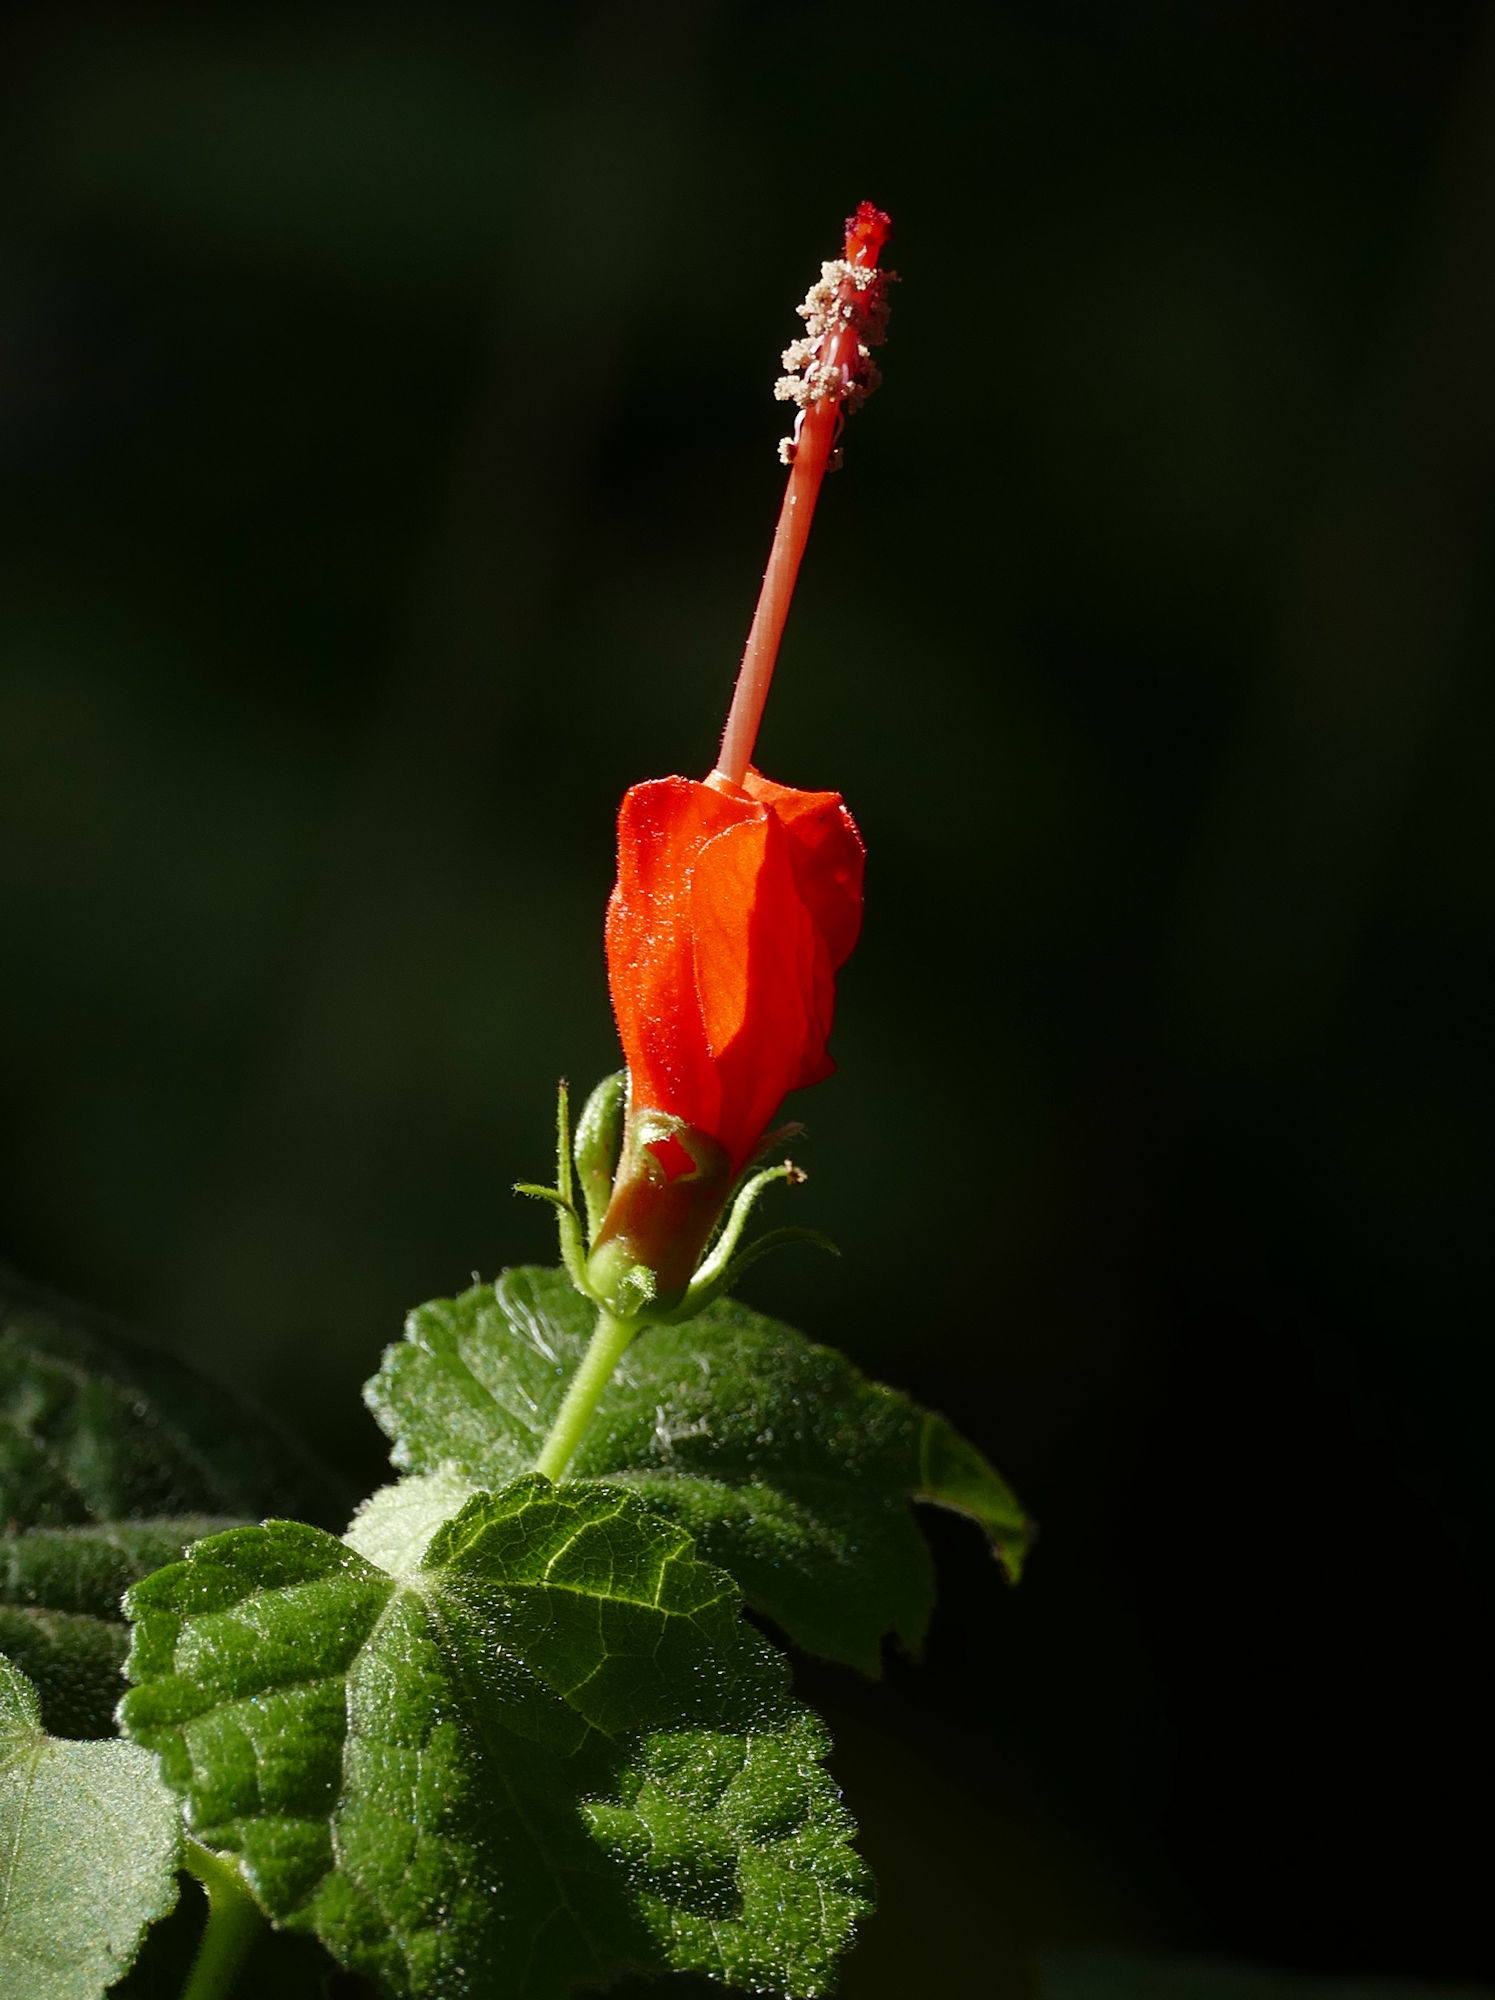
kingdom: Plantae
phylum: Tracheophyta
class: Magnoliopsida
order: Malvales
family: Malvaceae
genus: Malvaviscus
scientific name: Malvaviscus arboreus
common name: Wax mallow
